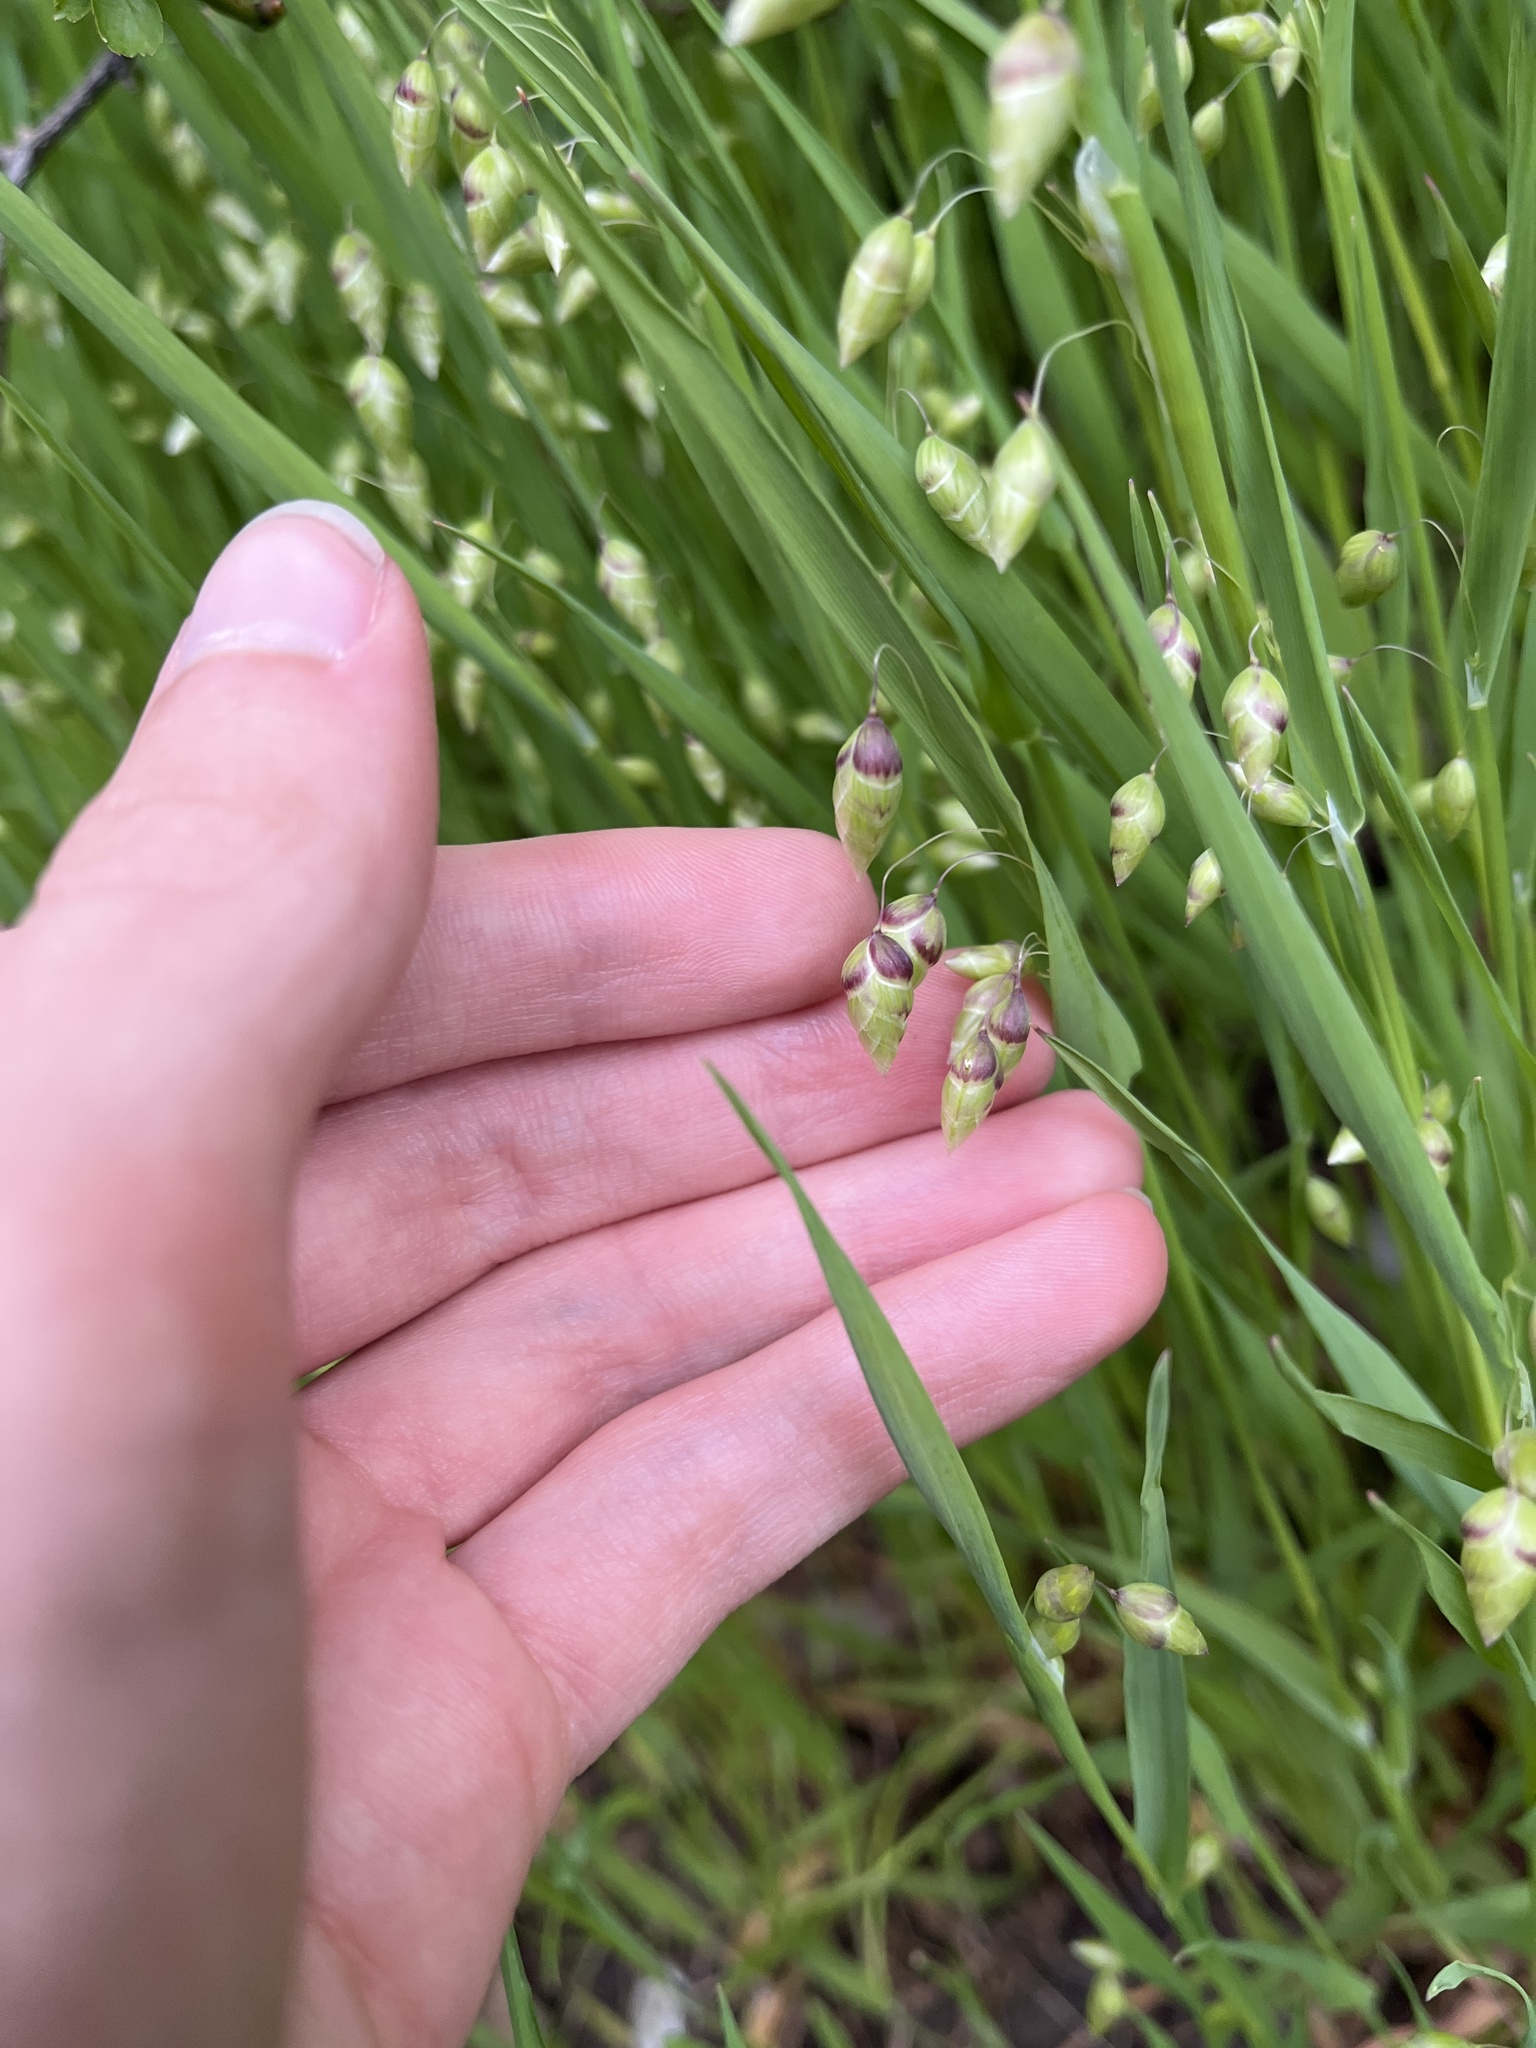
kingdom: Plantae
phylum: Tracheophyta
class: Liliopsida
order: Poales
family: Poaceae
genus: Briza
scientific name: Briza maxima
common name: Big quakinggrass
